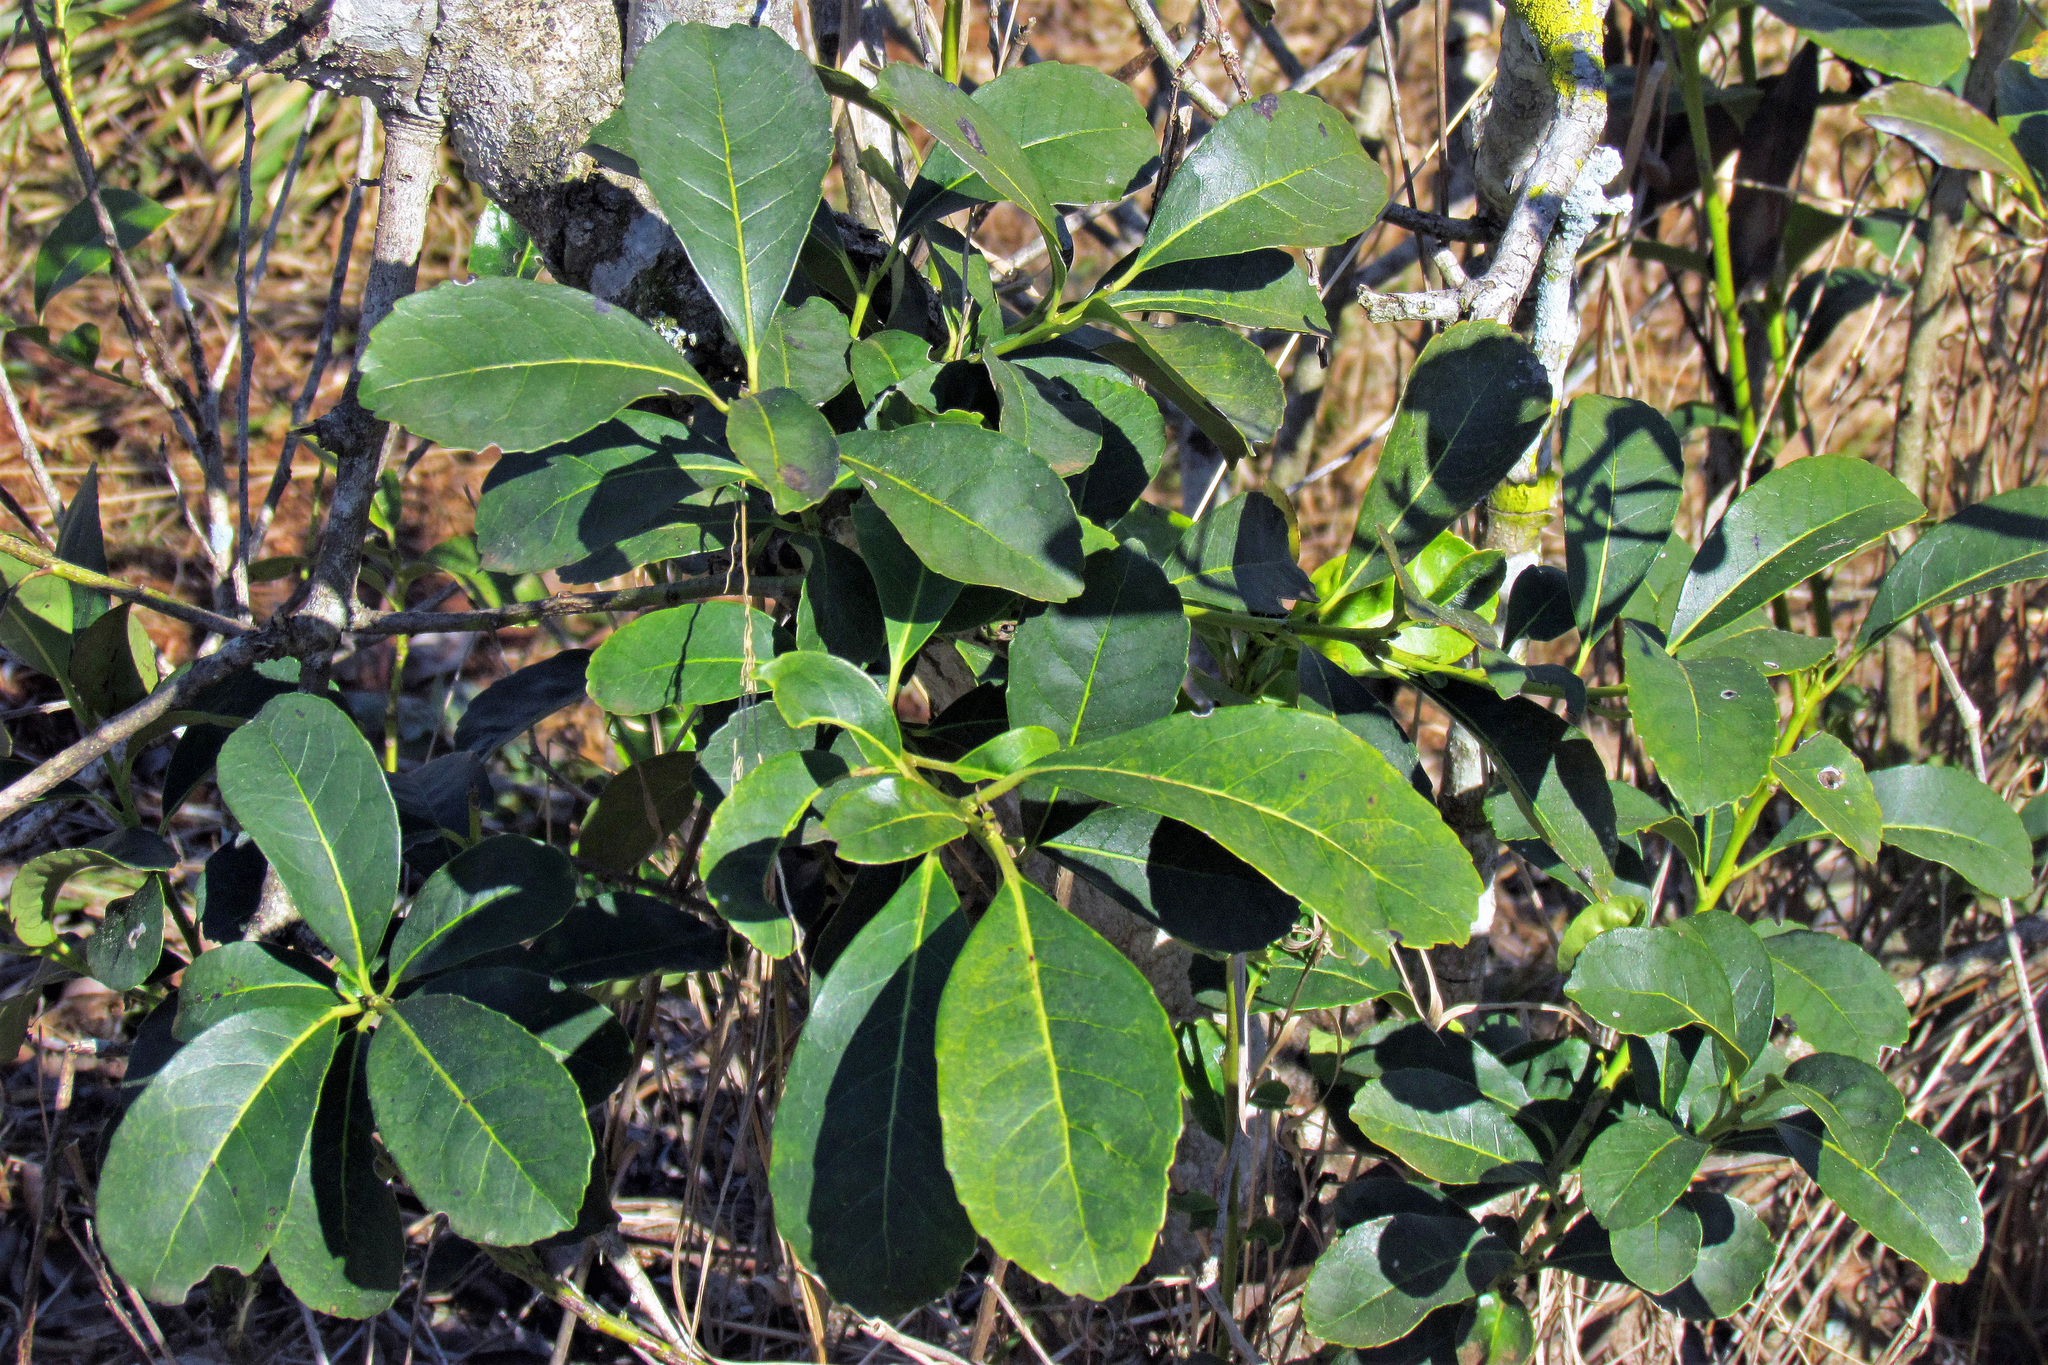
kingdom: Plantae
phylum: Tracheophyta
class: Magnoliopsida
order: Aquifoliales
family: Aquifoliaceae
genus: Ilex
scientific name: Ilex paraguariensis
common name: Paraguay tea
